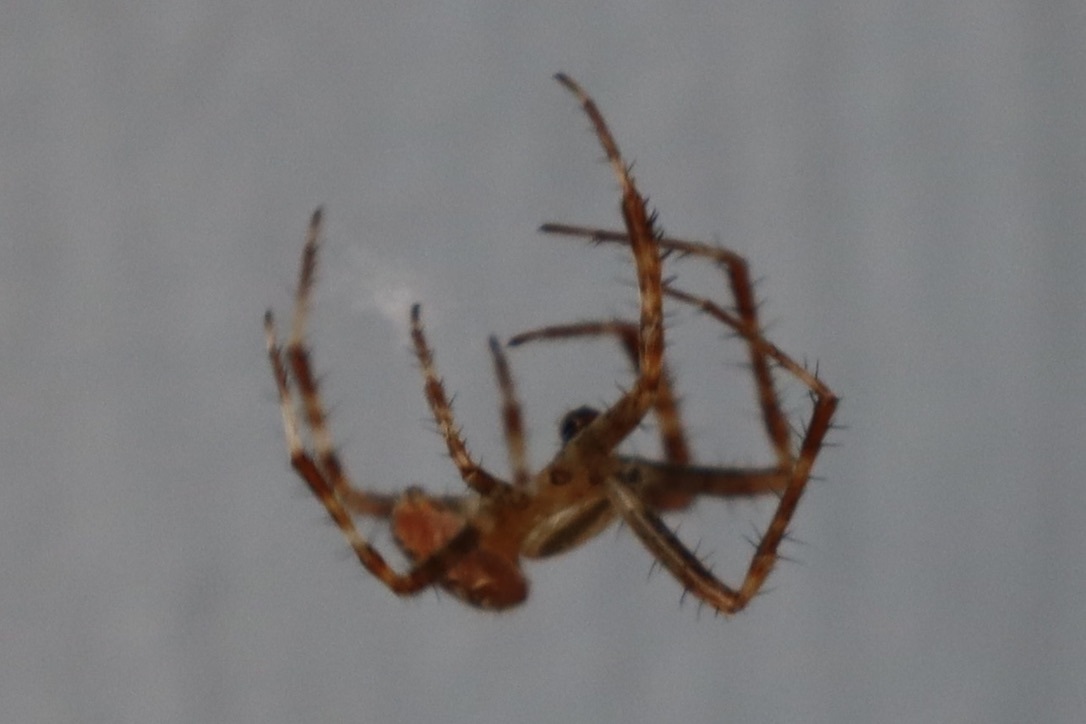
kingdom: Animalia
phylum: Arthropoda
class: Arachnida
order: Araneae
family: Araneidae
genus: Araneus
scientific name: Araneus diadematus
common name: Cross orbweaver
